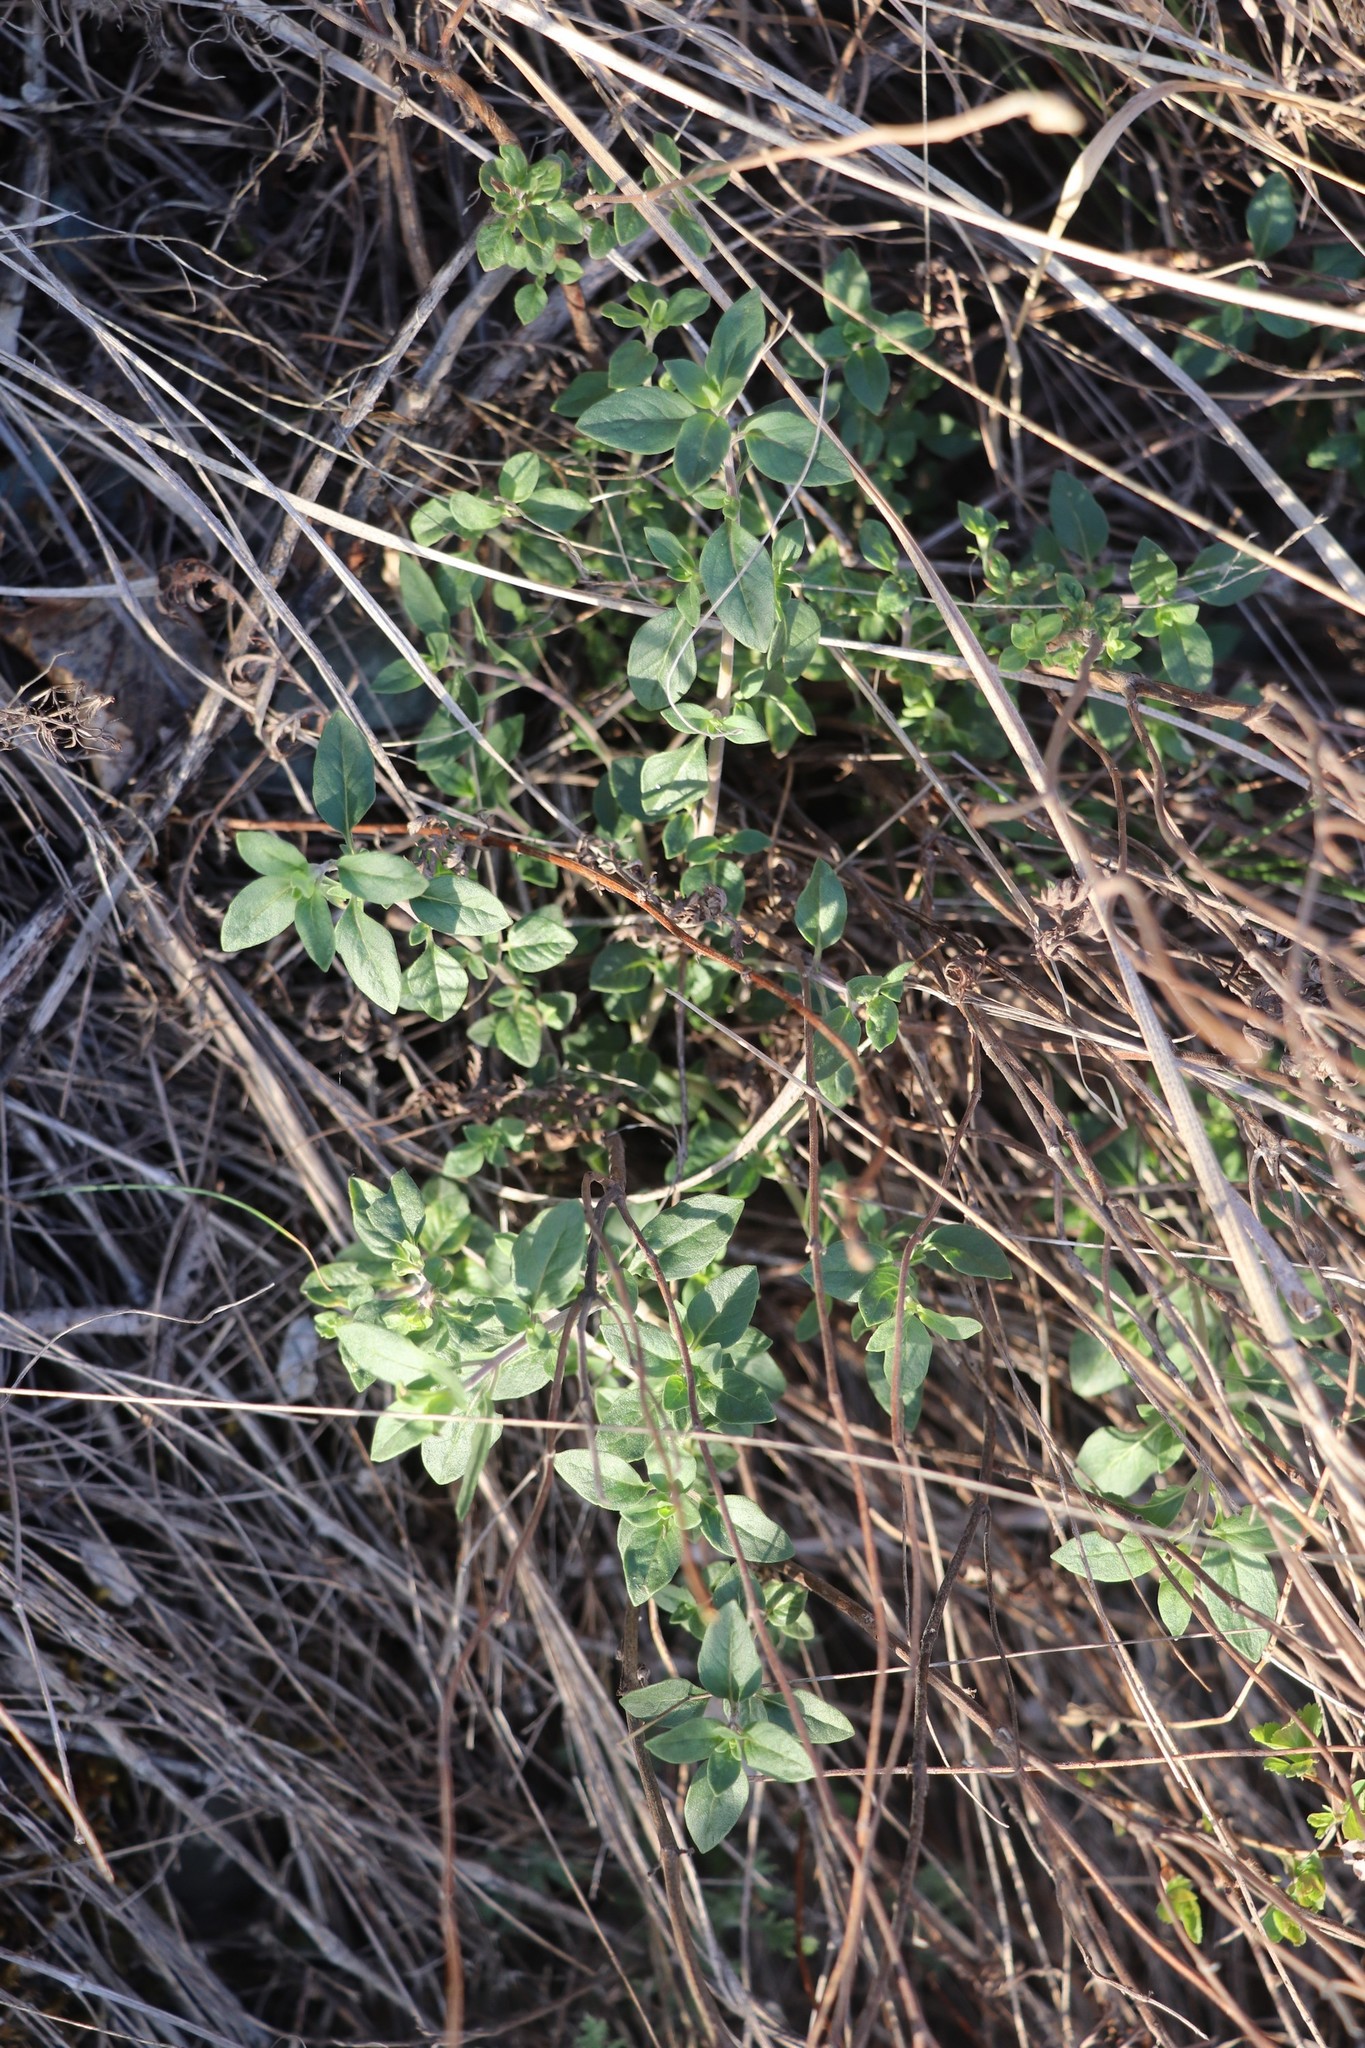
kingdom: Plantae
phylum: Tracheophyta
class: Magnoliopsida
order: Lamiales
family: Lamiaceae
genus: Ziziphora
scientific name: Ziziphora clinopodioides
